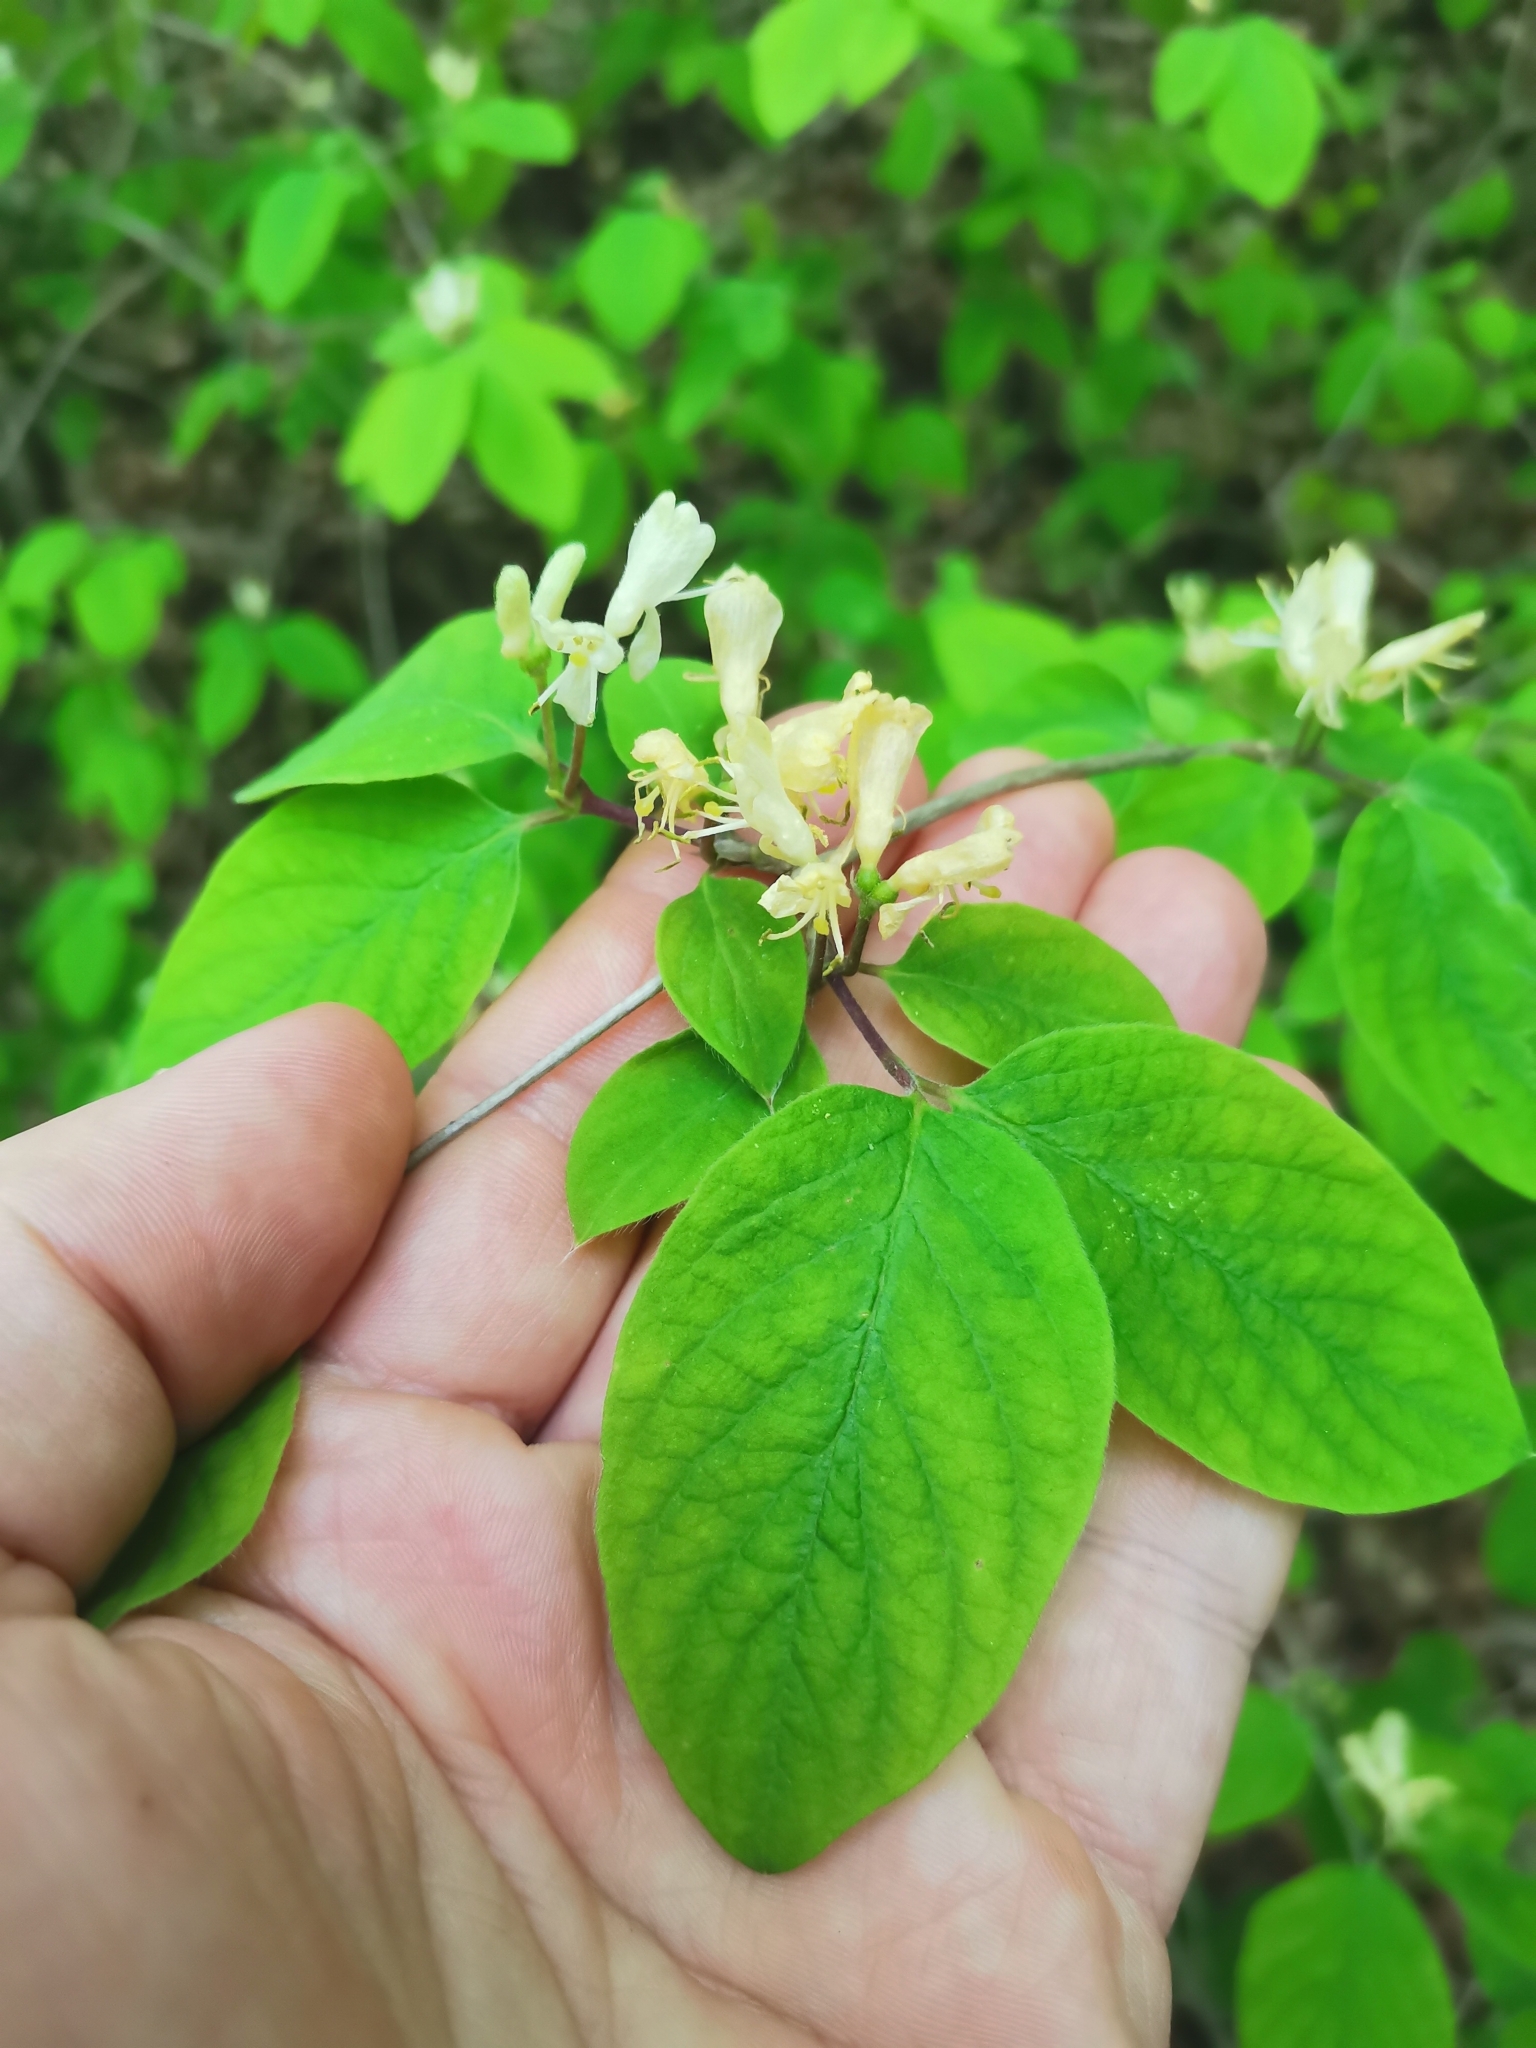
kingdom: Plantae
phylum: Tracheophyta
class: Magnoliopsida
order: Dipsacales
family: Caprifoliaceae
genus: Lonicera
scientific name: Lonicera xylosteum
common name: Fly honeysuckle
